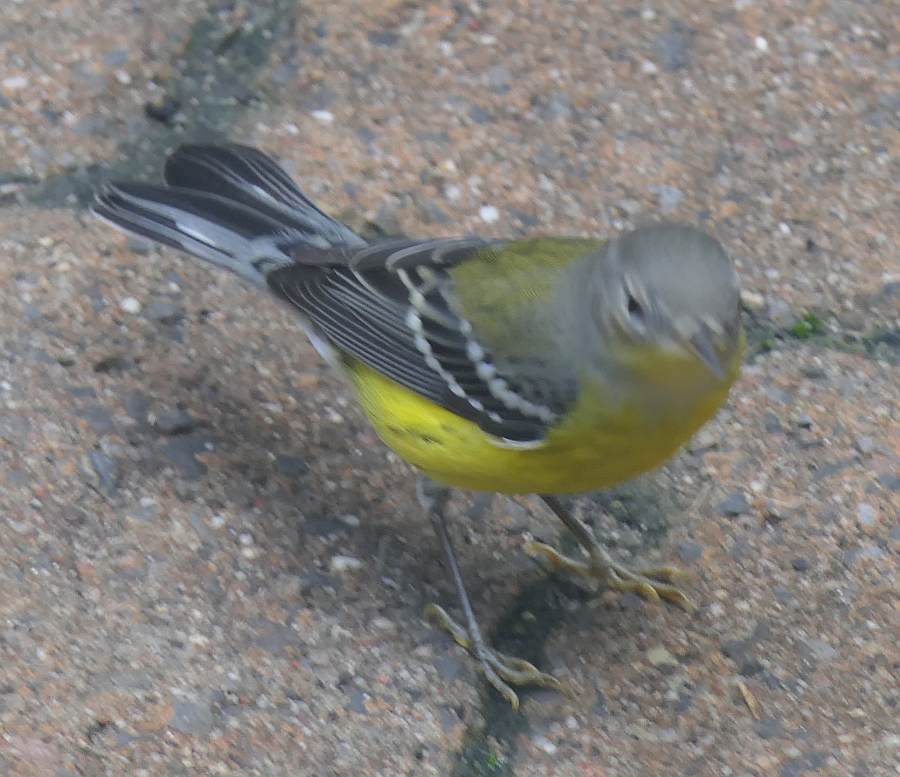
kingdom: Animalia
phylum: Chordata
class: Aves
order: Passeriformes
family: Parulidae
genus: Setophaga
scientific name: Setophaga magnolia
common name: Magnolia warbler
